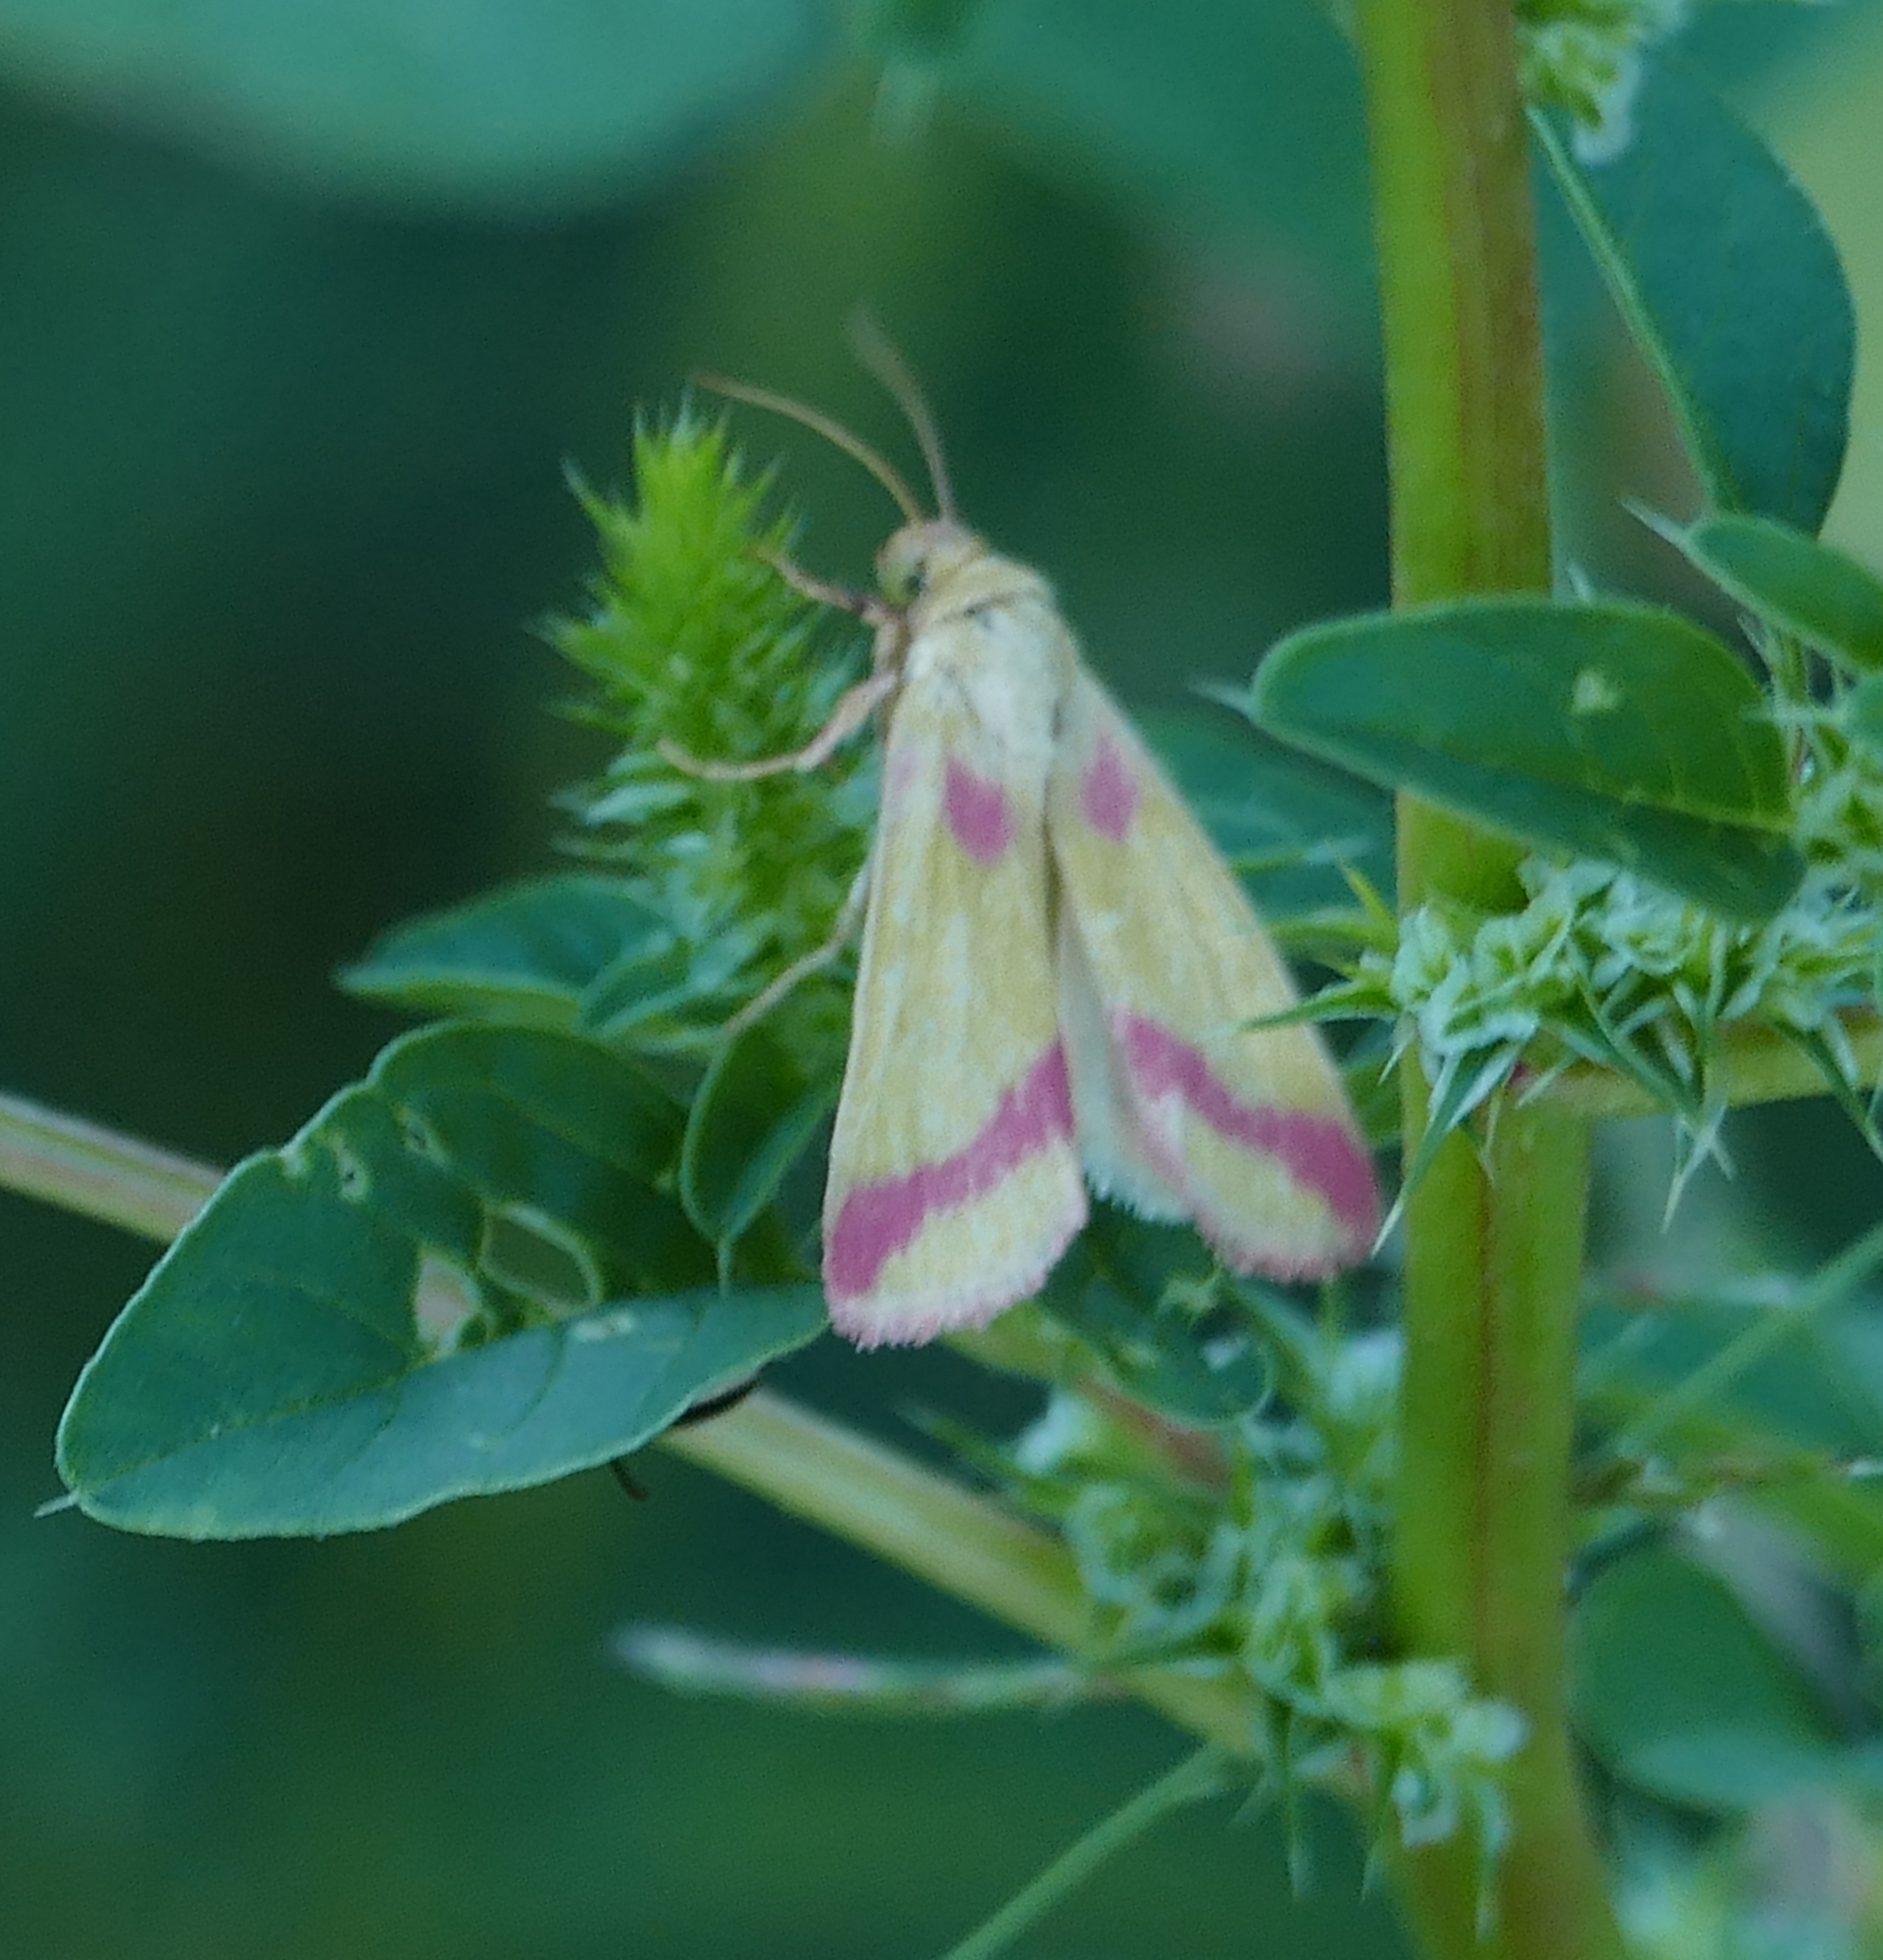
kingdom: Animalia
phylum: Arthropoda
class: Insecta
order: Lepidoptera
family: Noctuidae
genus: Heliocheilus
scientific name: Heliocheilus toralis
